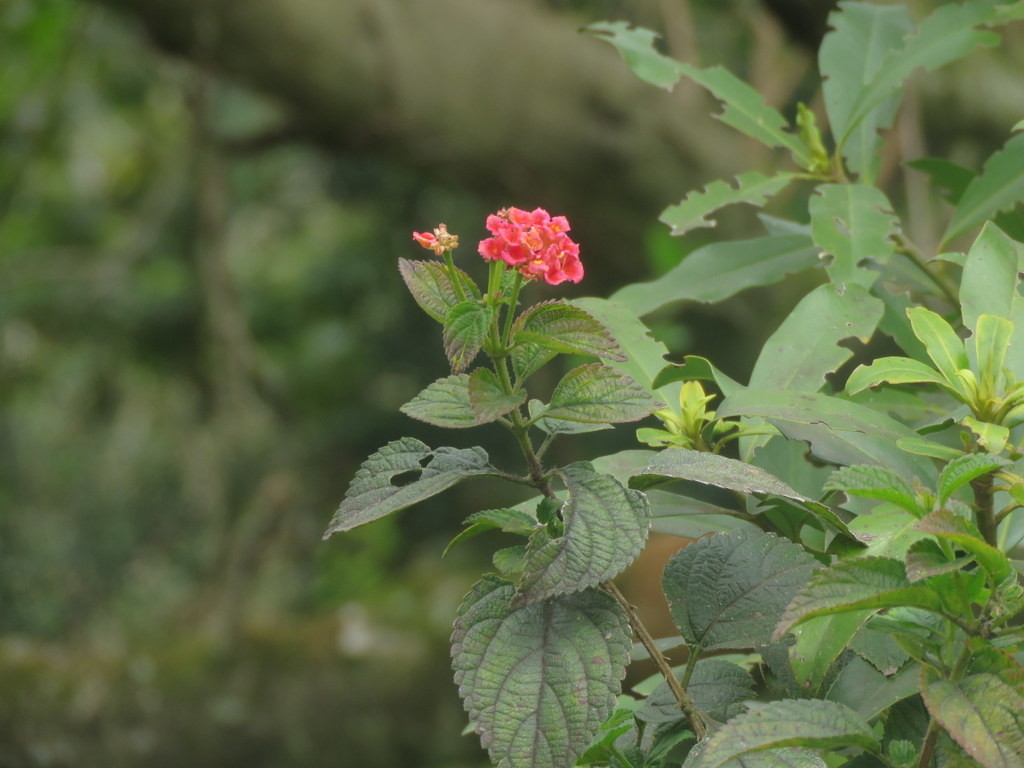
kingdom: Plantae
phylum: Tracheophyta
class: Magnoliopsida
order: Lamiales
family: Verbenaceae
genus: Lantana
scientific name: Lantana camara
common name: Lantana
